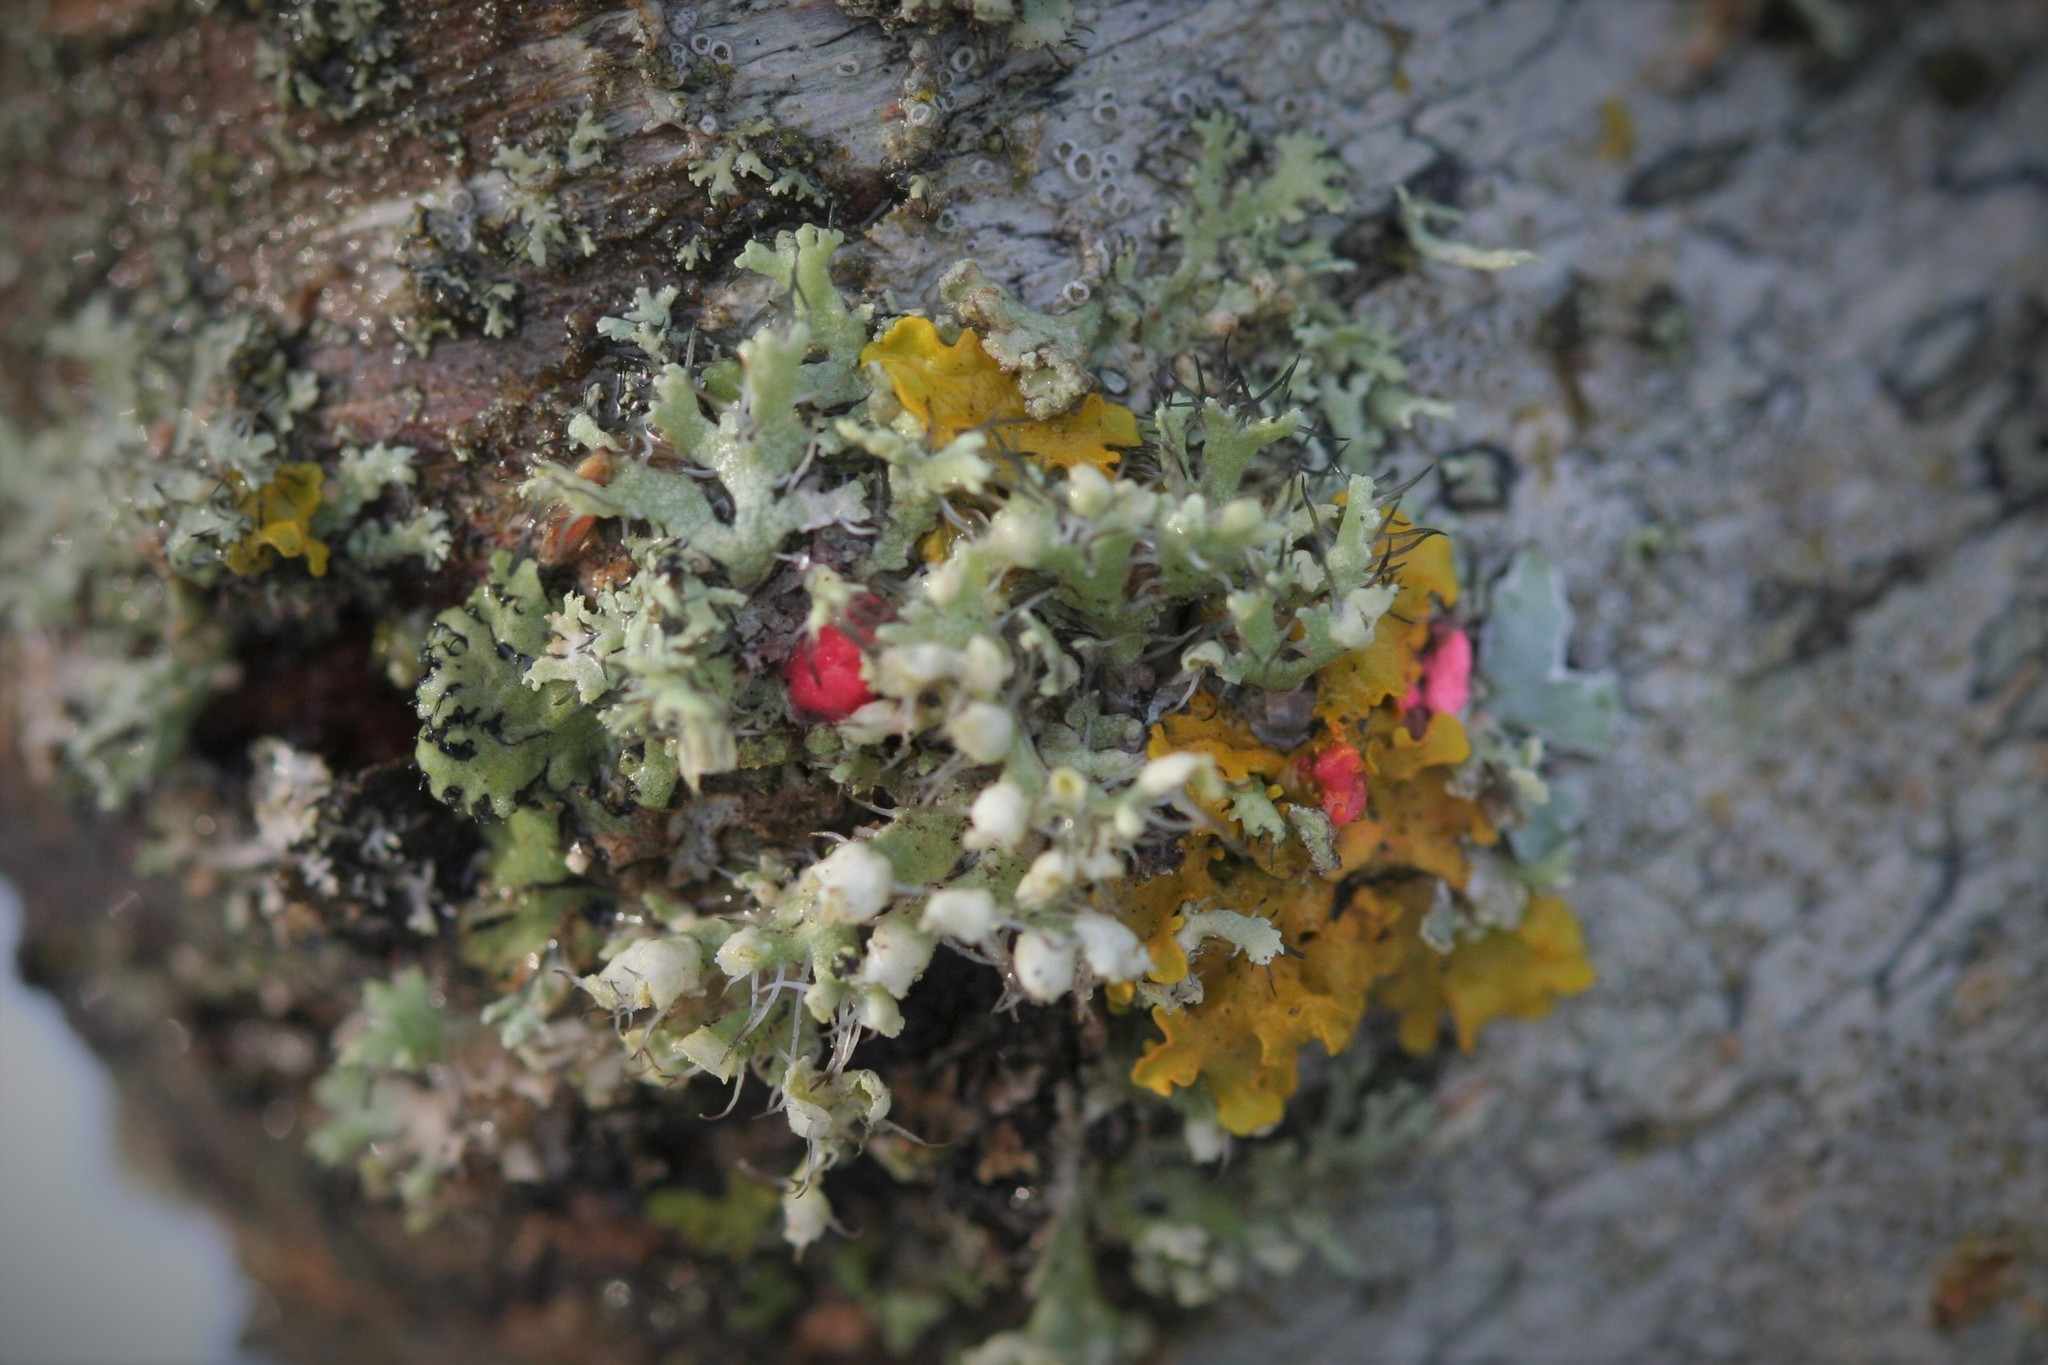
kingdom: Fungi
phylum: Ascomycota
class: Lecanoromycetes
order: Caliciales
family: Physciaceae
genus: Physcia
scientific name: Physcia adscendens
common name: Hooded rosette lichen
